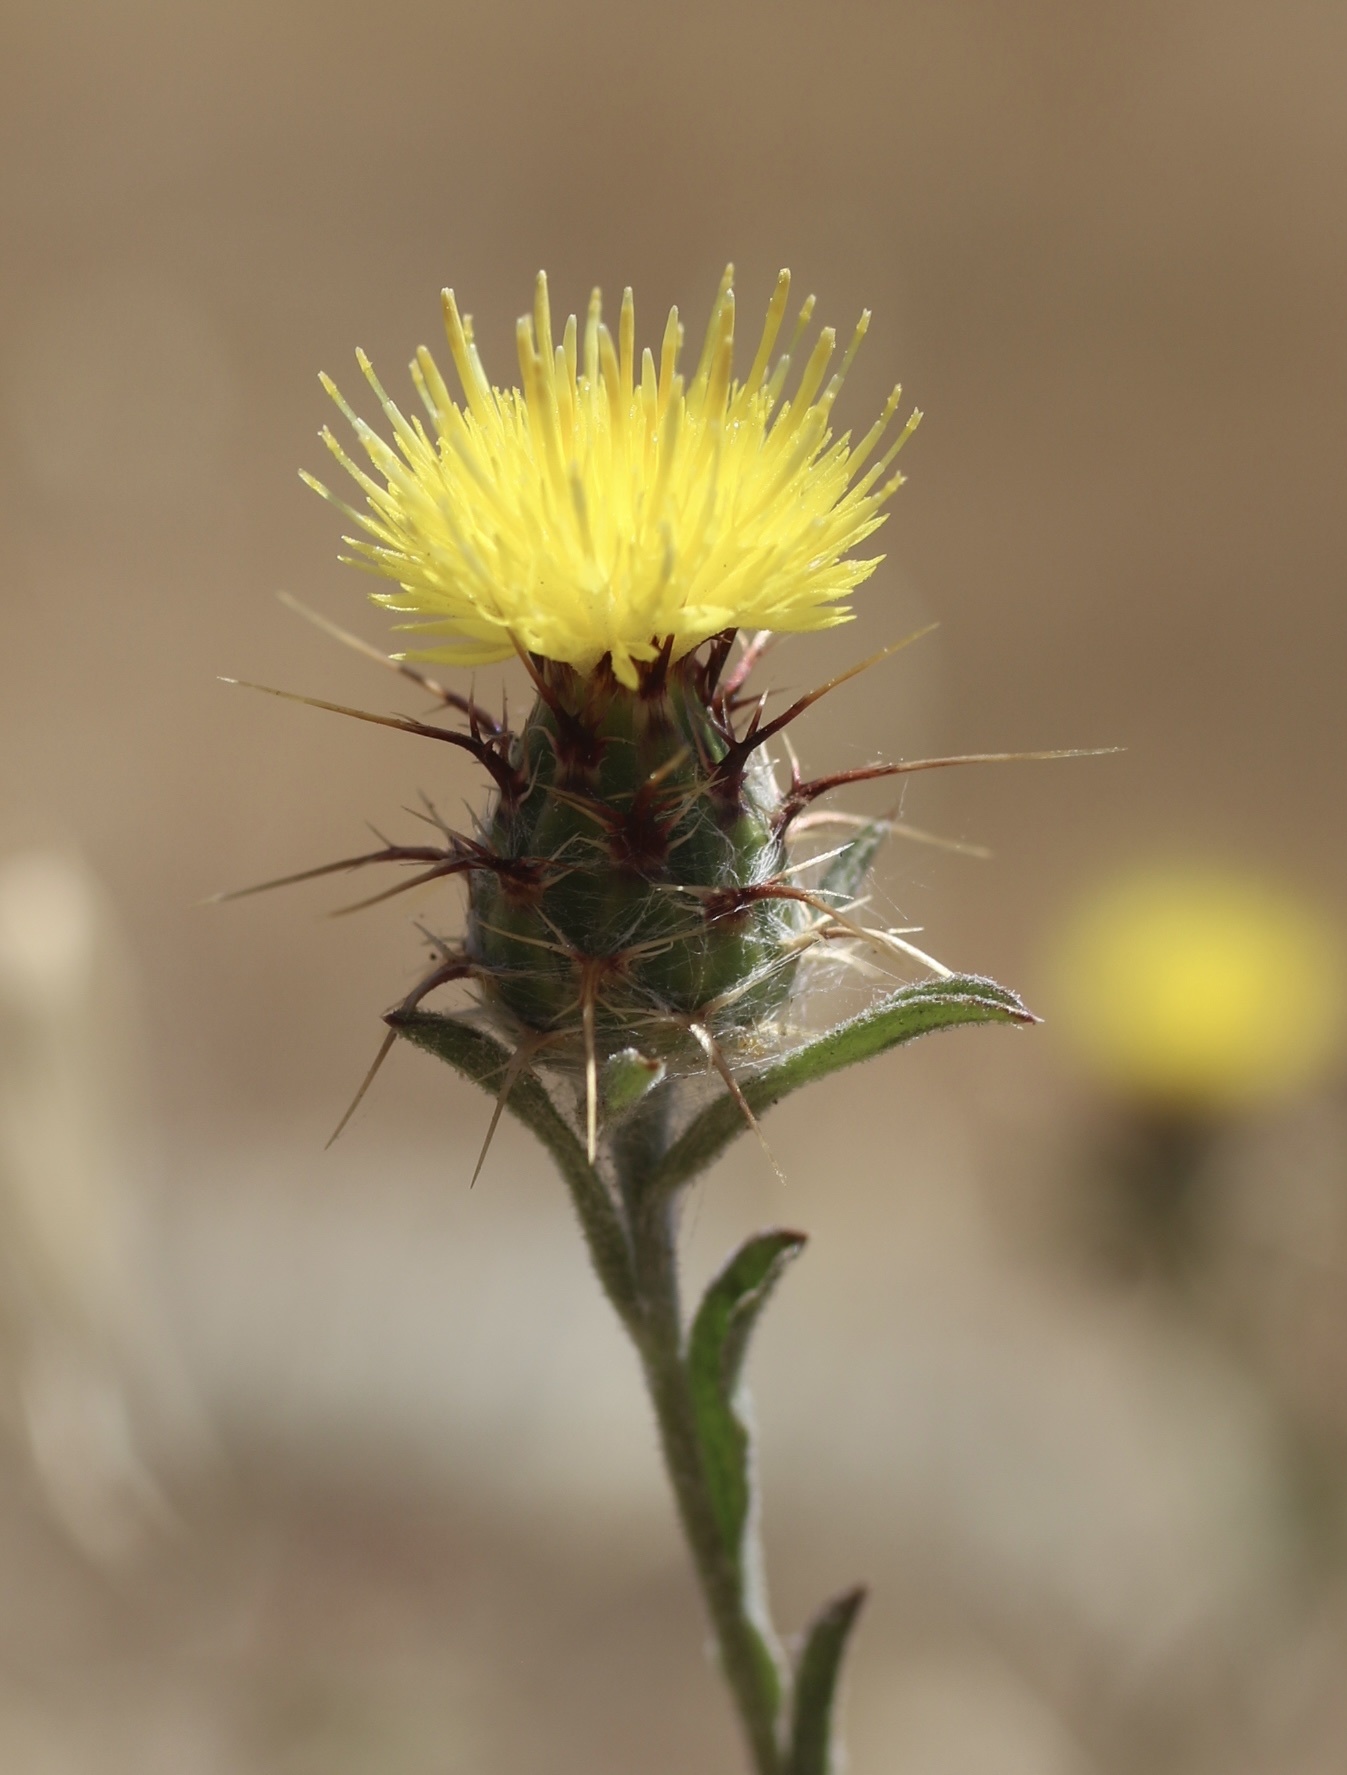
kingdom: Plantae
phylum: Tracheophyta
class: Magnoliopsida
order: Asterales
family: Asteraceae
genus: Centaurea
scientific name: Centaurea melitensis
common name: Maltese star-thistle
